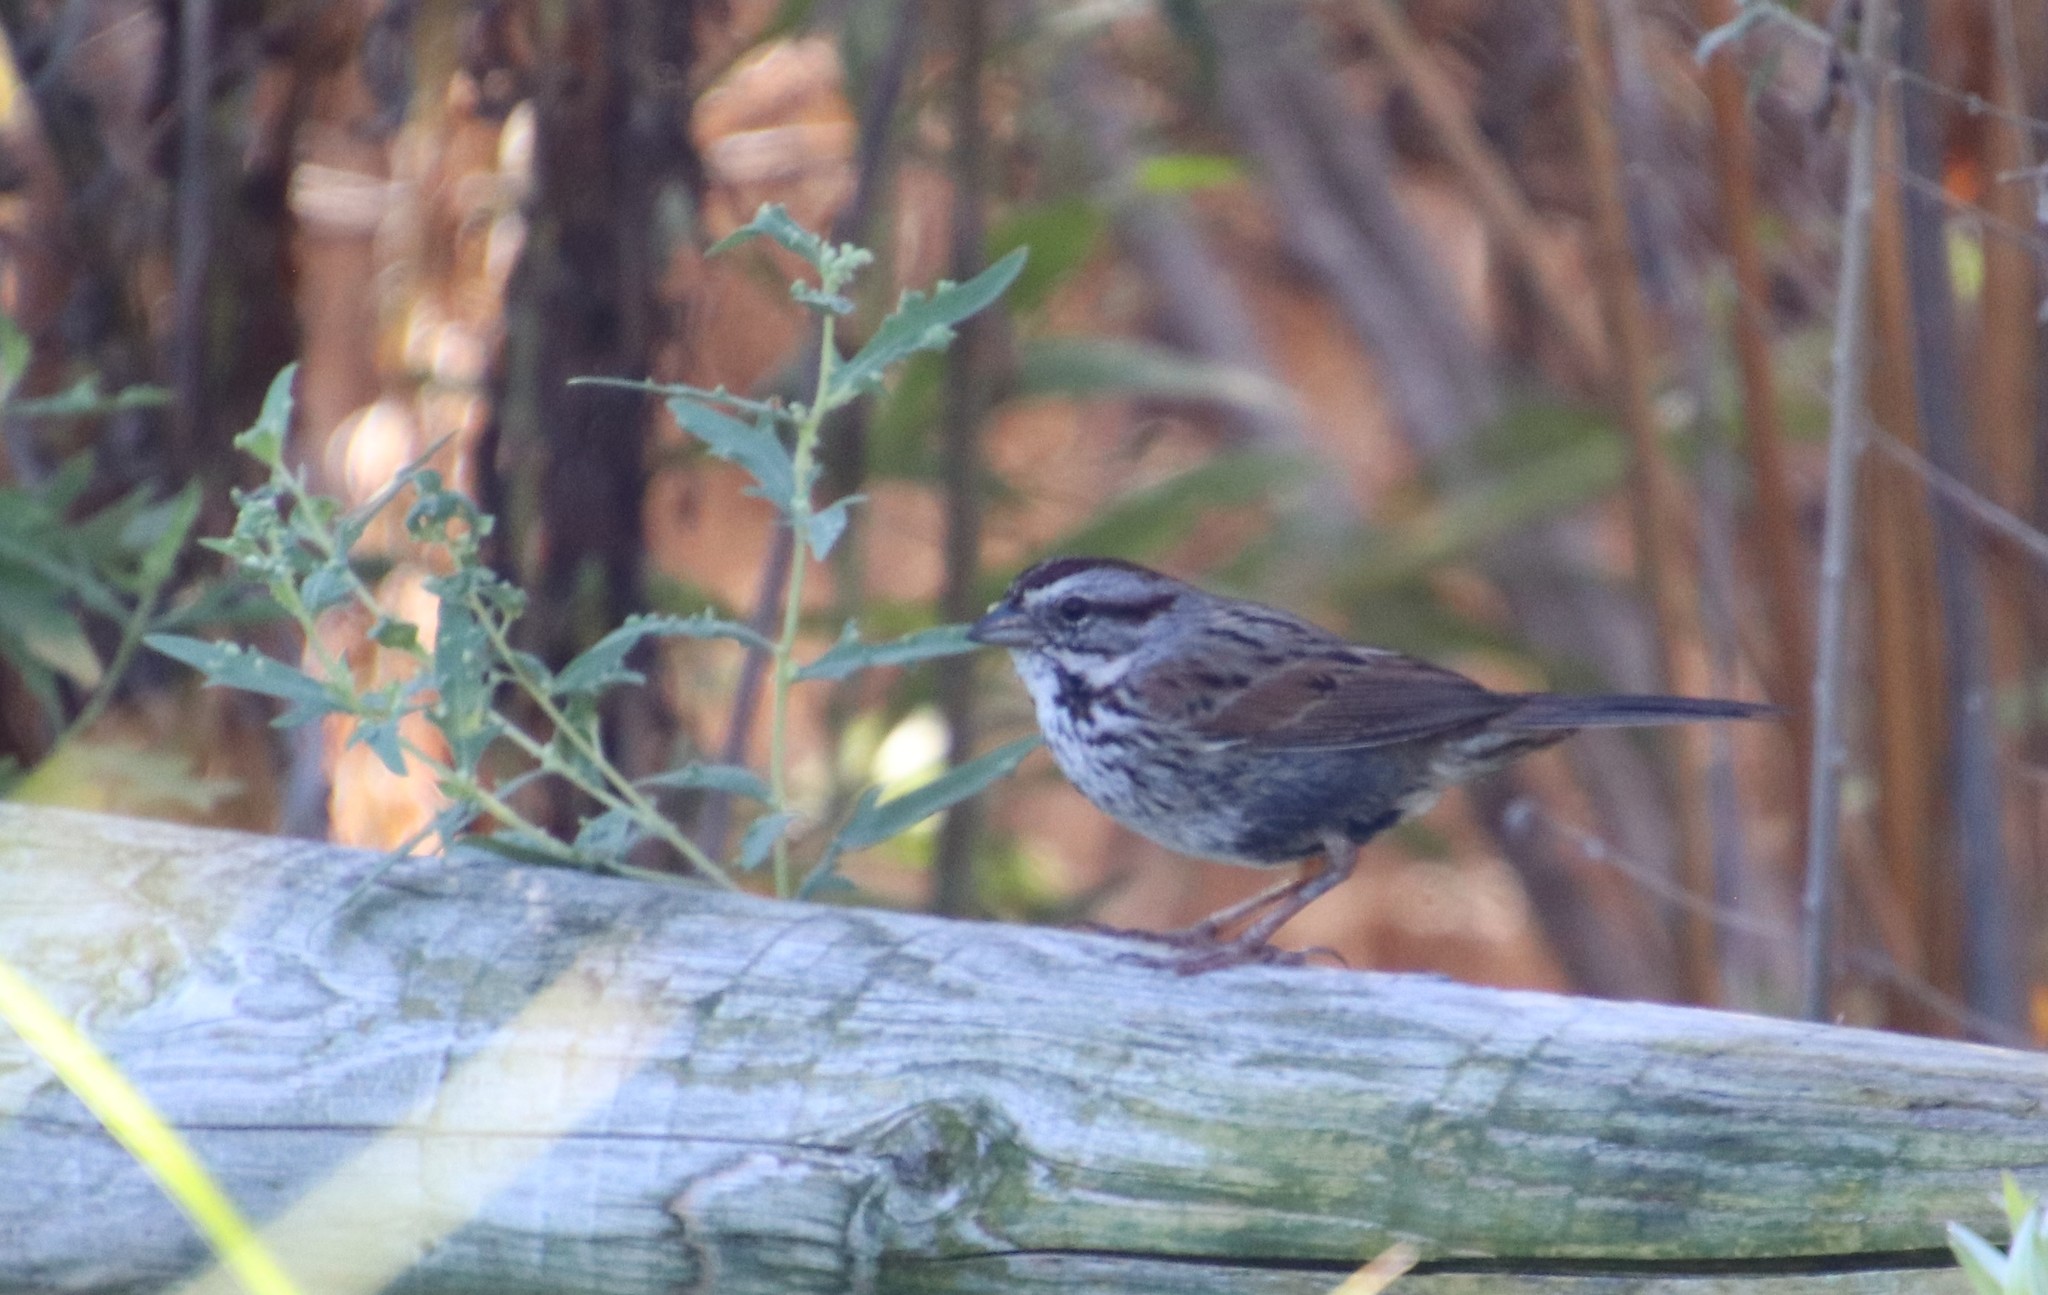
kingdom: Animalia
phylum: Chordata
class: Aves
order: Passeriformes
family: Passerellidae
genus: Melospiza
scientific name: Melospiza melodia
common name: Song sparrow
